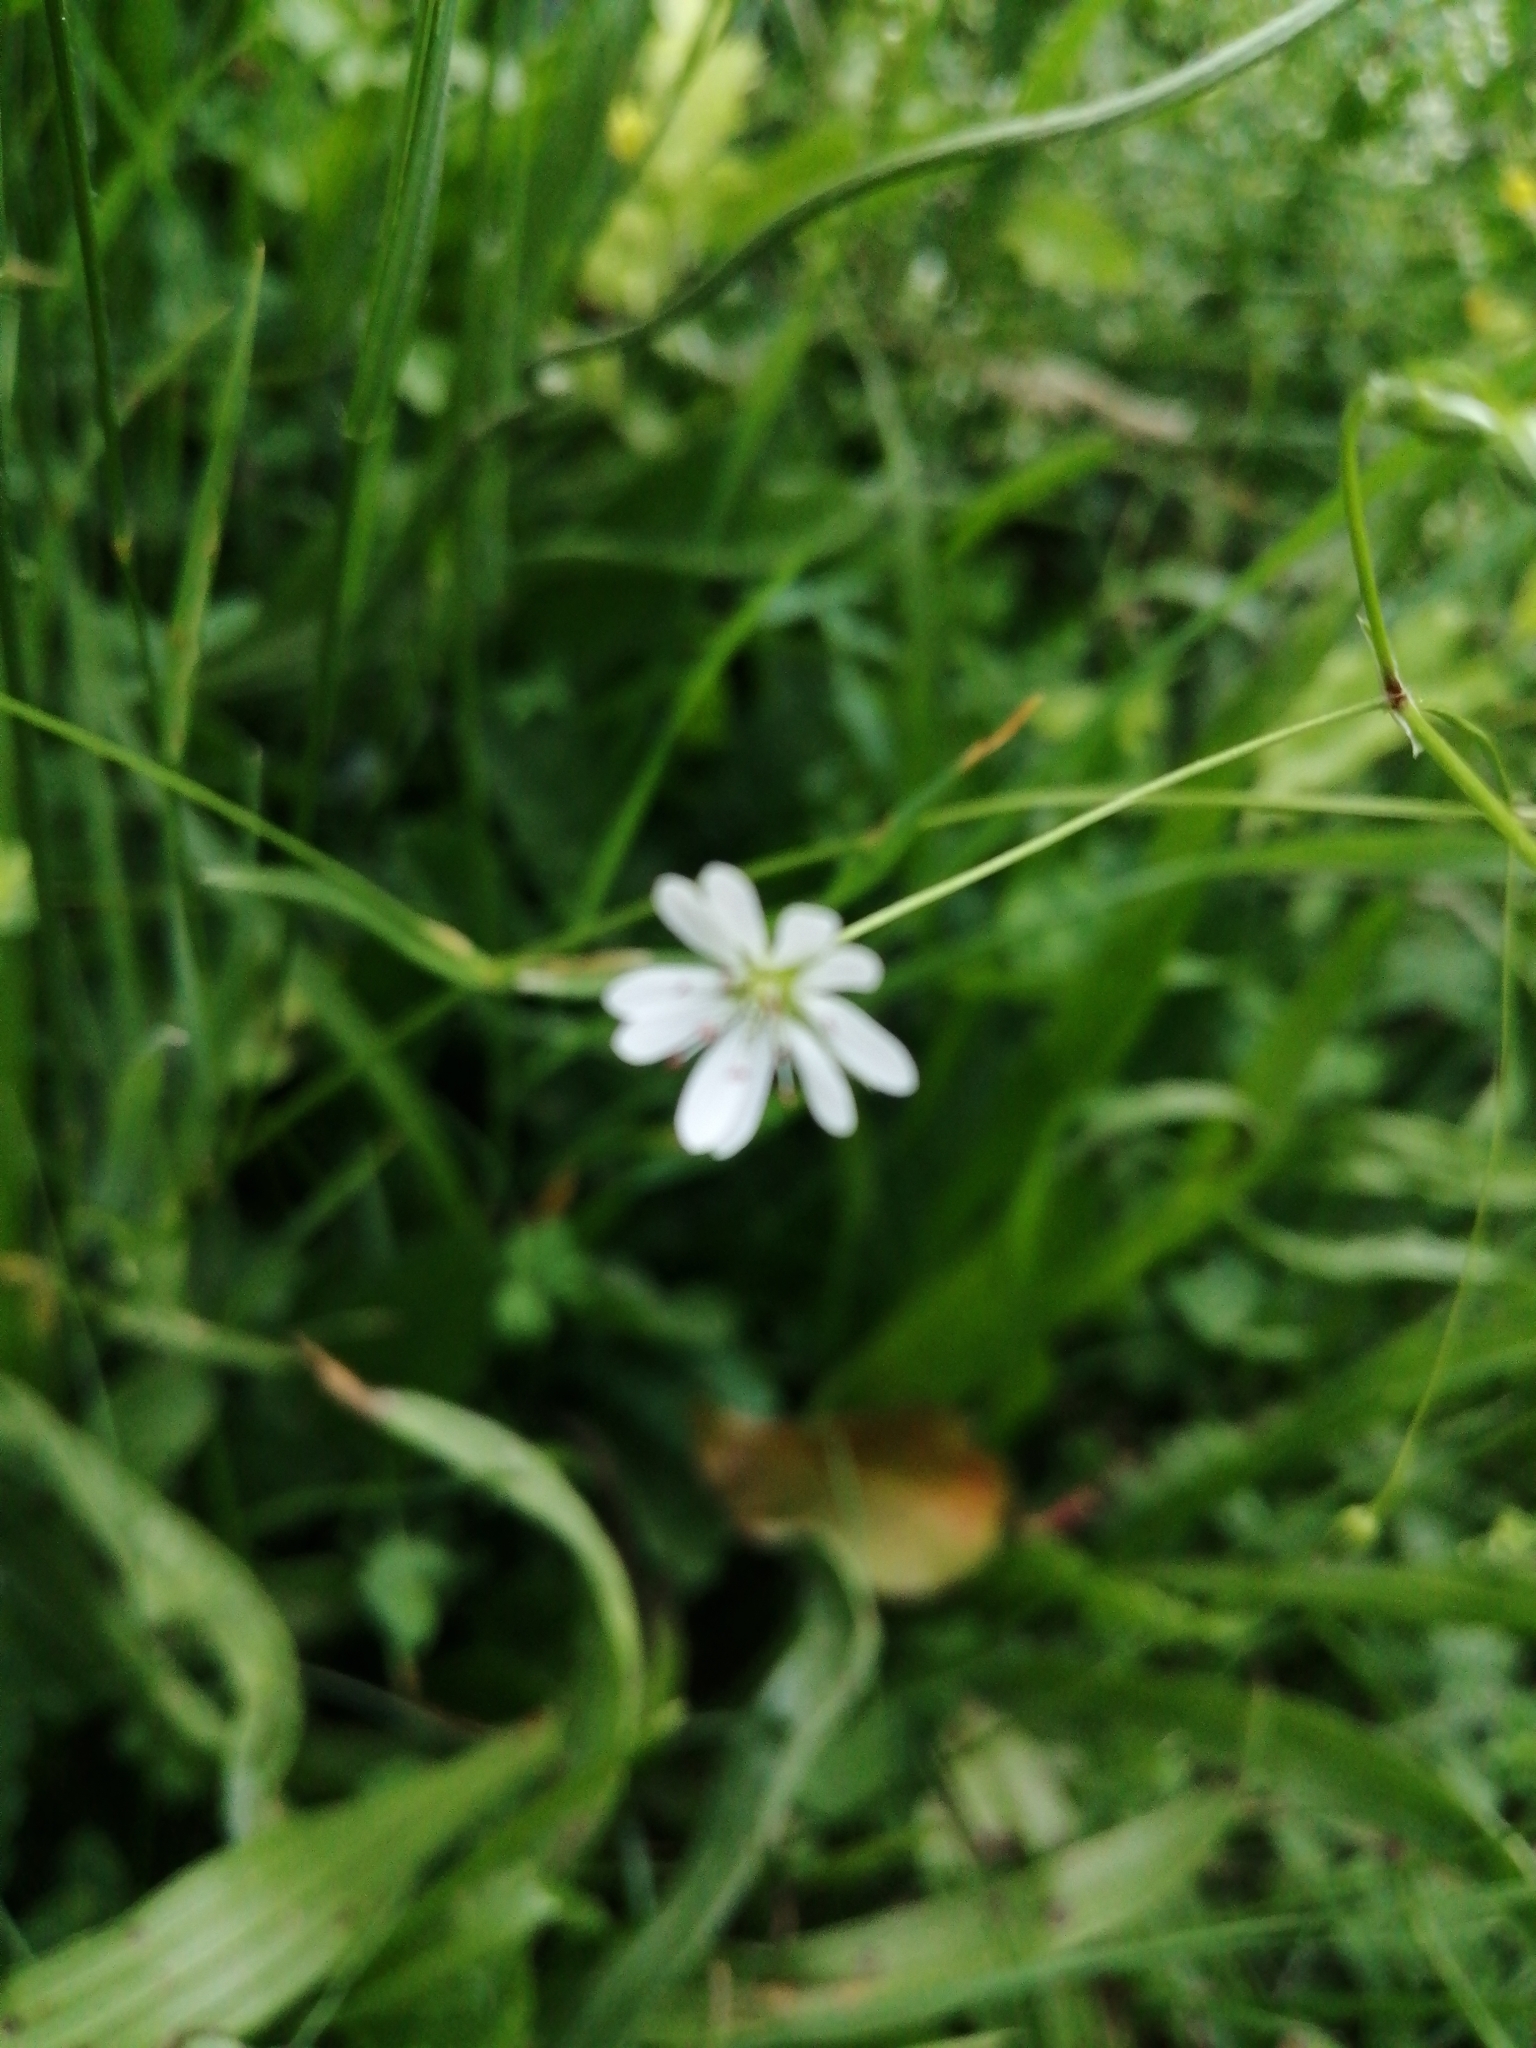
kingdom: Plantae
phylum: Tracheophyta
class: Magnoliopsida
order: Caryophyllales
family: Caryophyllaceae
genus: Stellaria
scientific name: Stellaria graminea
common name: Grass-like starwort
